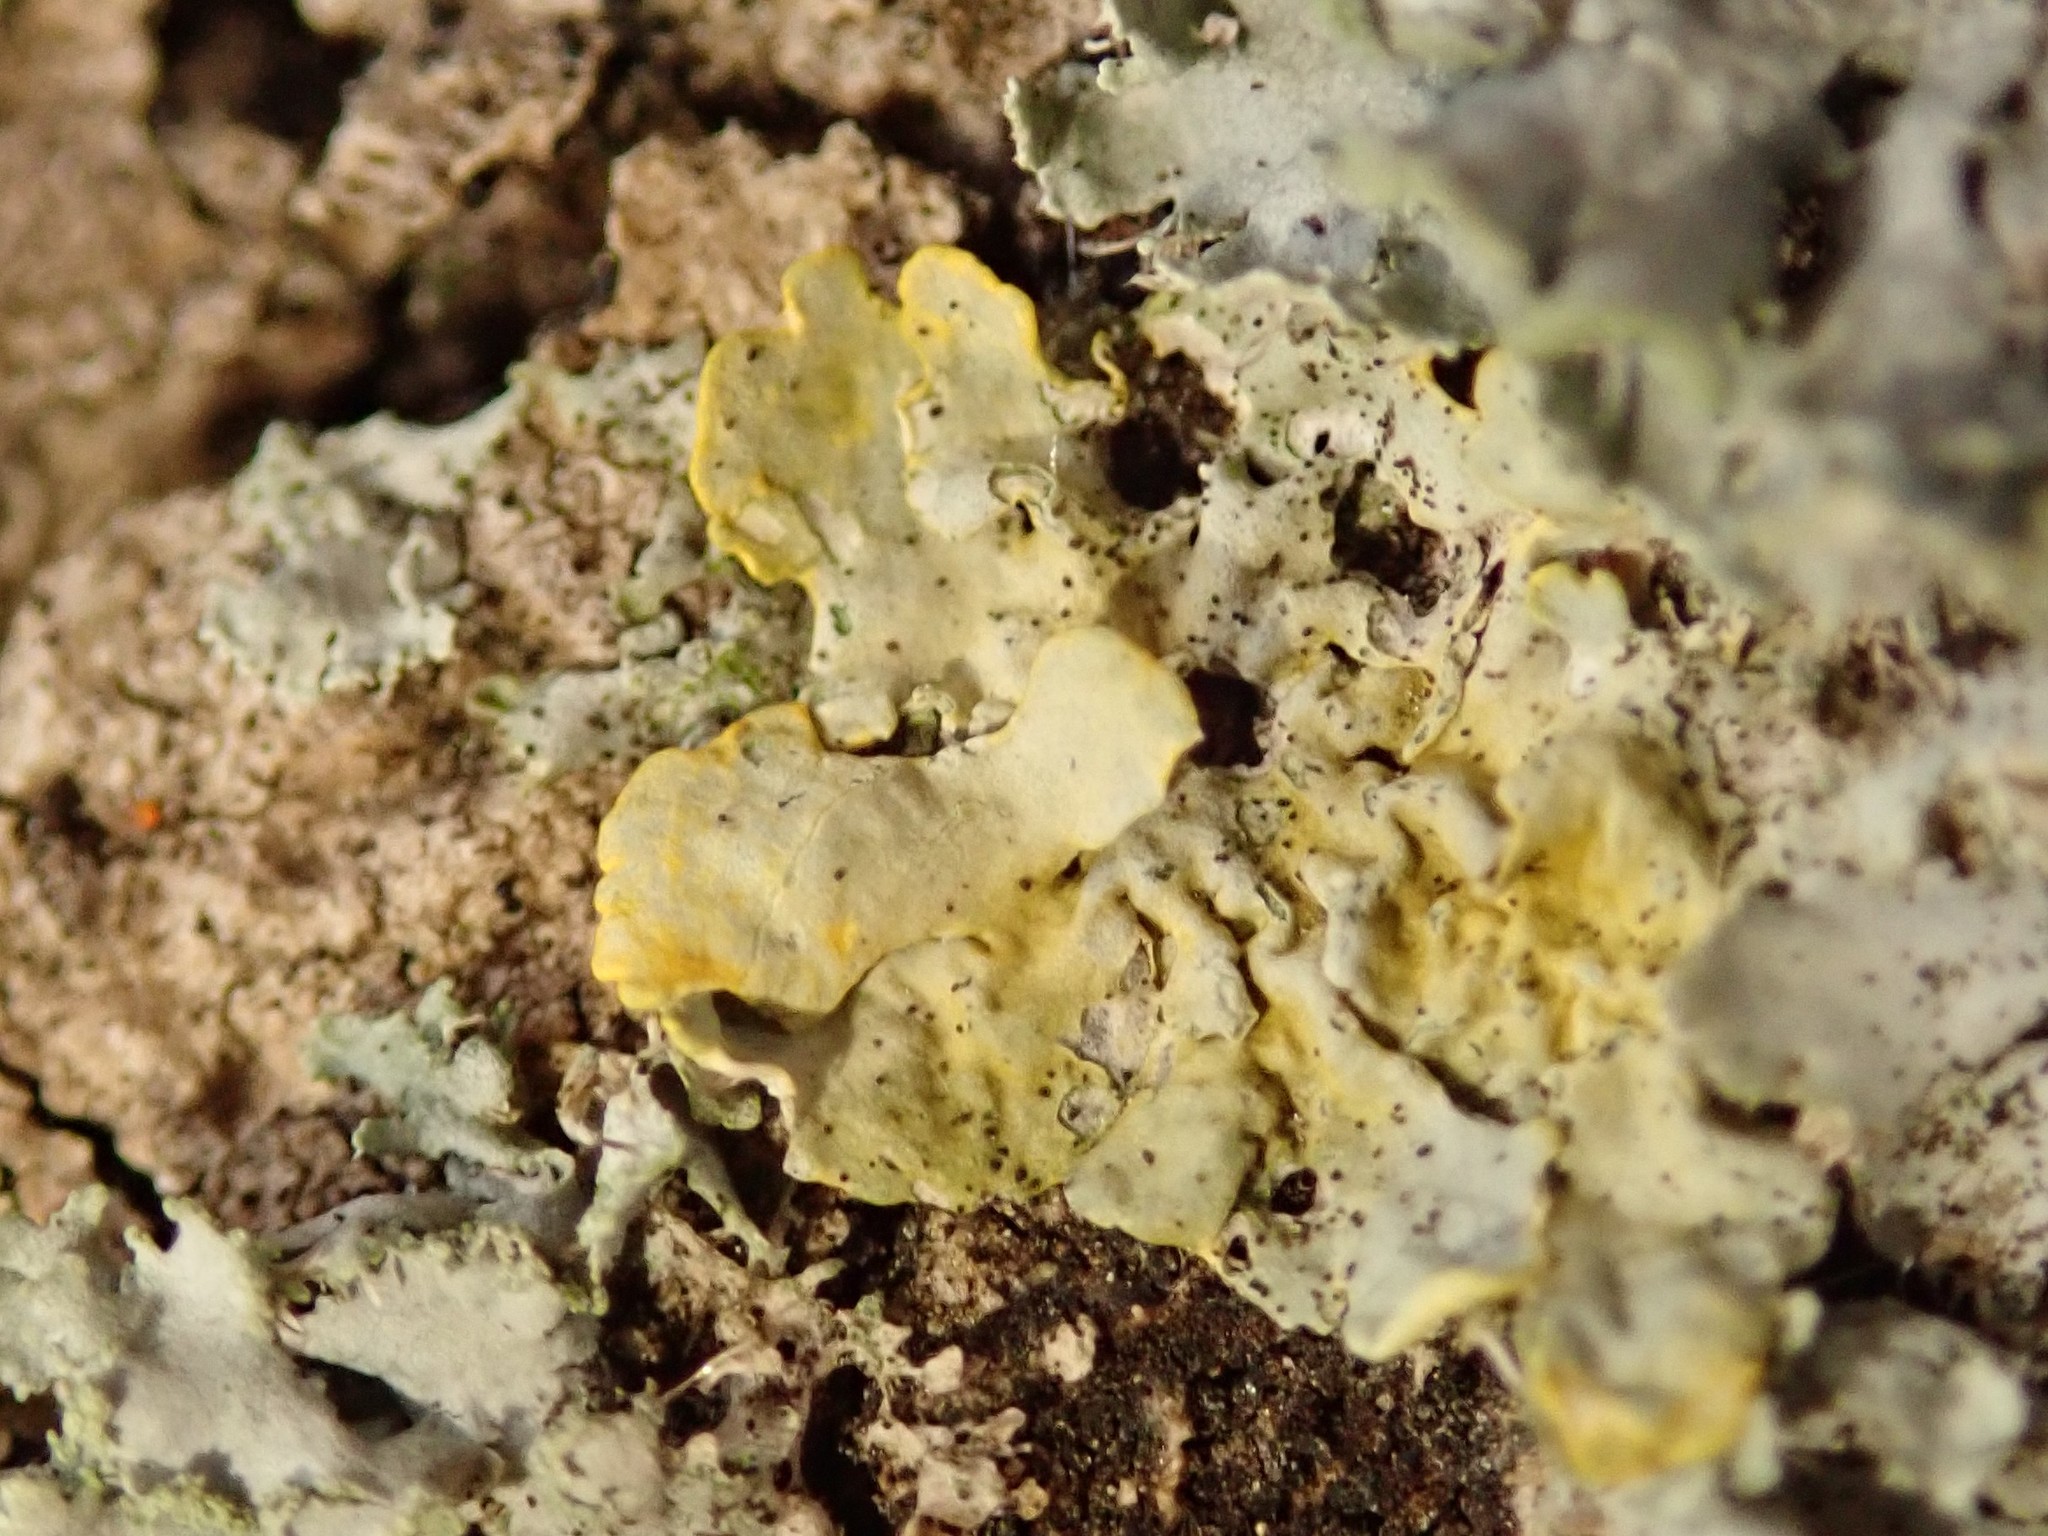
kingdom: Fungi
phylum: Ascomycota
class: Lecanoromycetes
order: Teloschistales
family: Teloschistaceae
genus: Xanthoria
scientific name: Xanthoria parietina
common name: Common orange lichen
